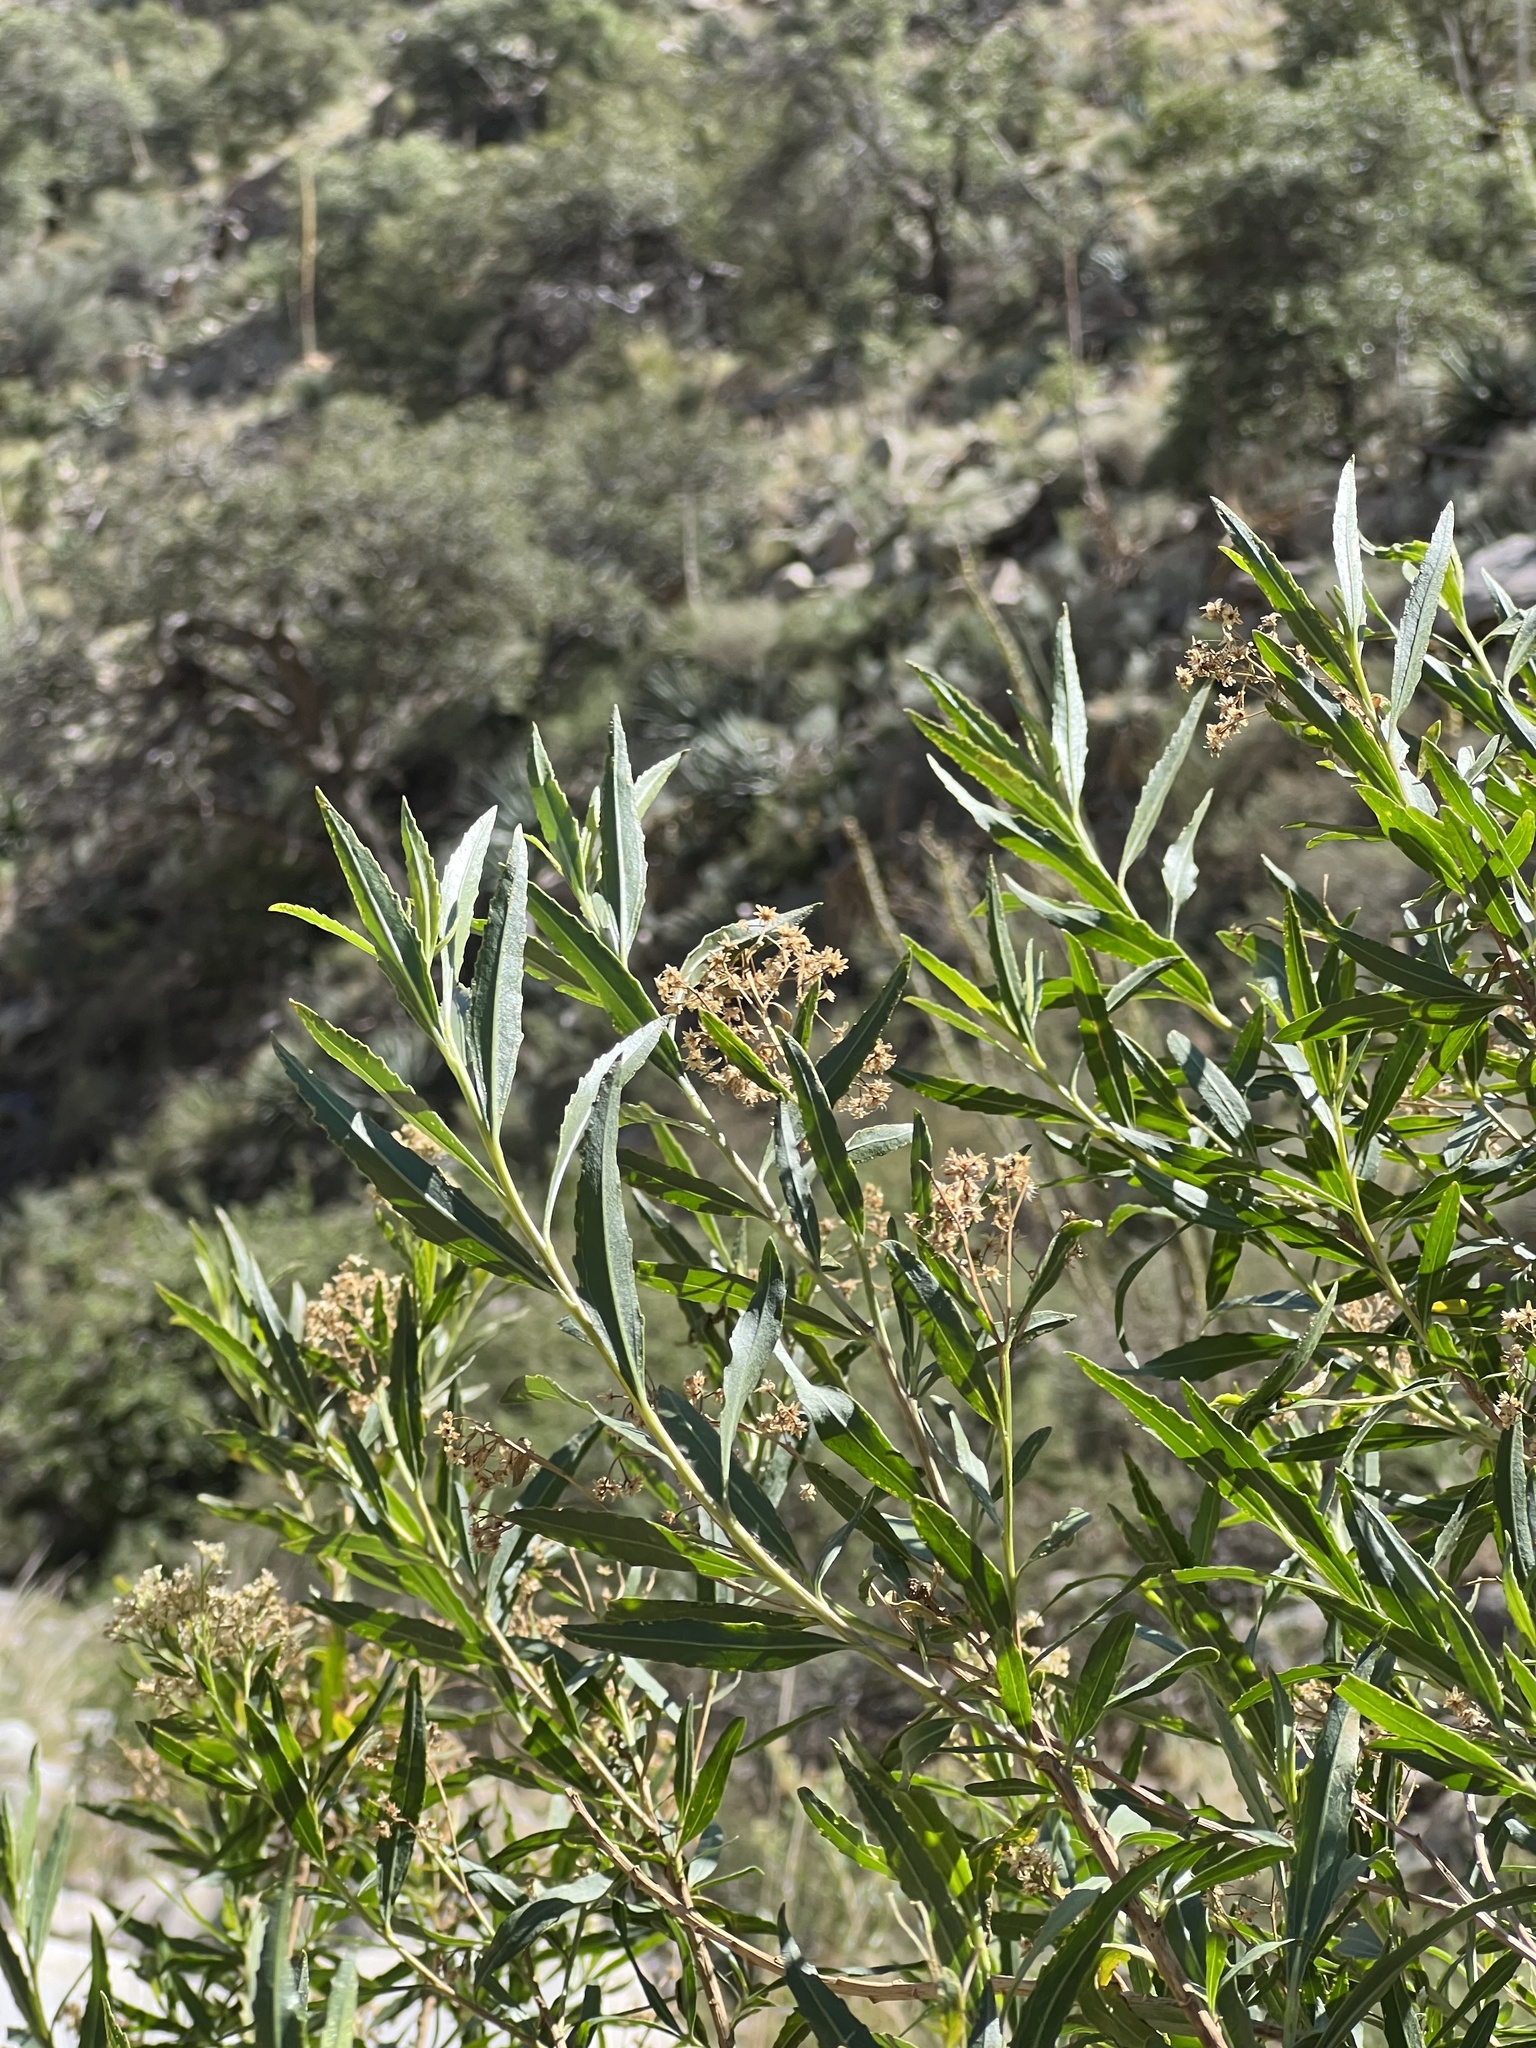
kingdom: Plantae
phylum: Tracheophyta
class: Magnoliopsida
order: Asterales
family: Asteraceae
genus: Baccharis
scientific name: Baccharis salicifolia
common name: Sticky baccharis
